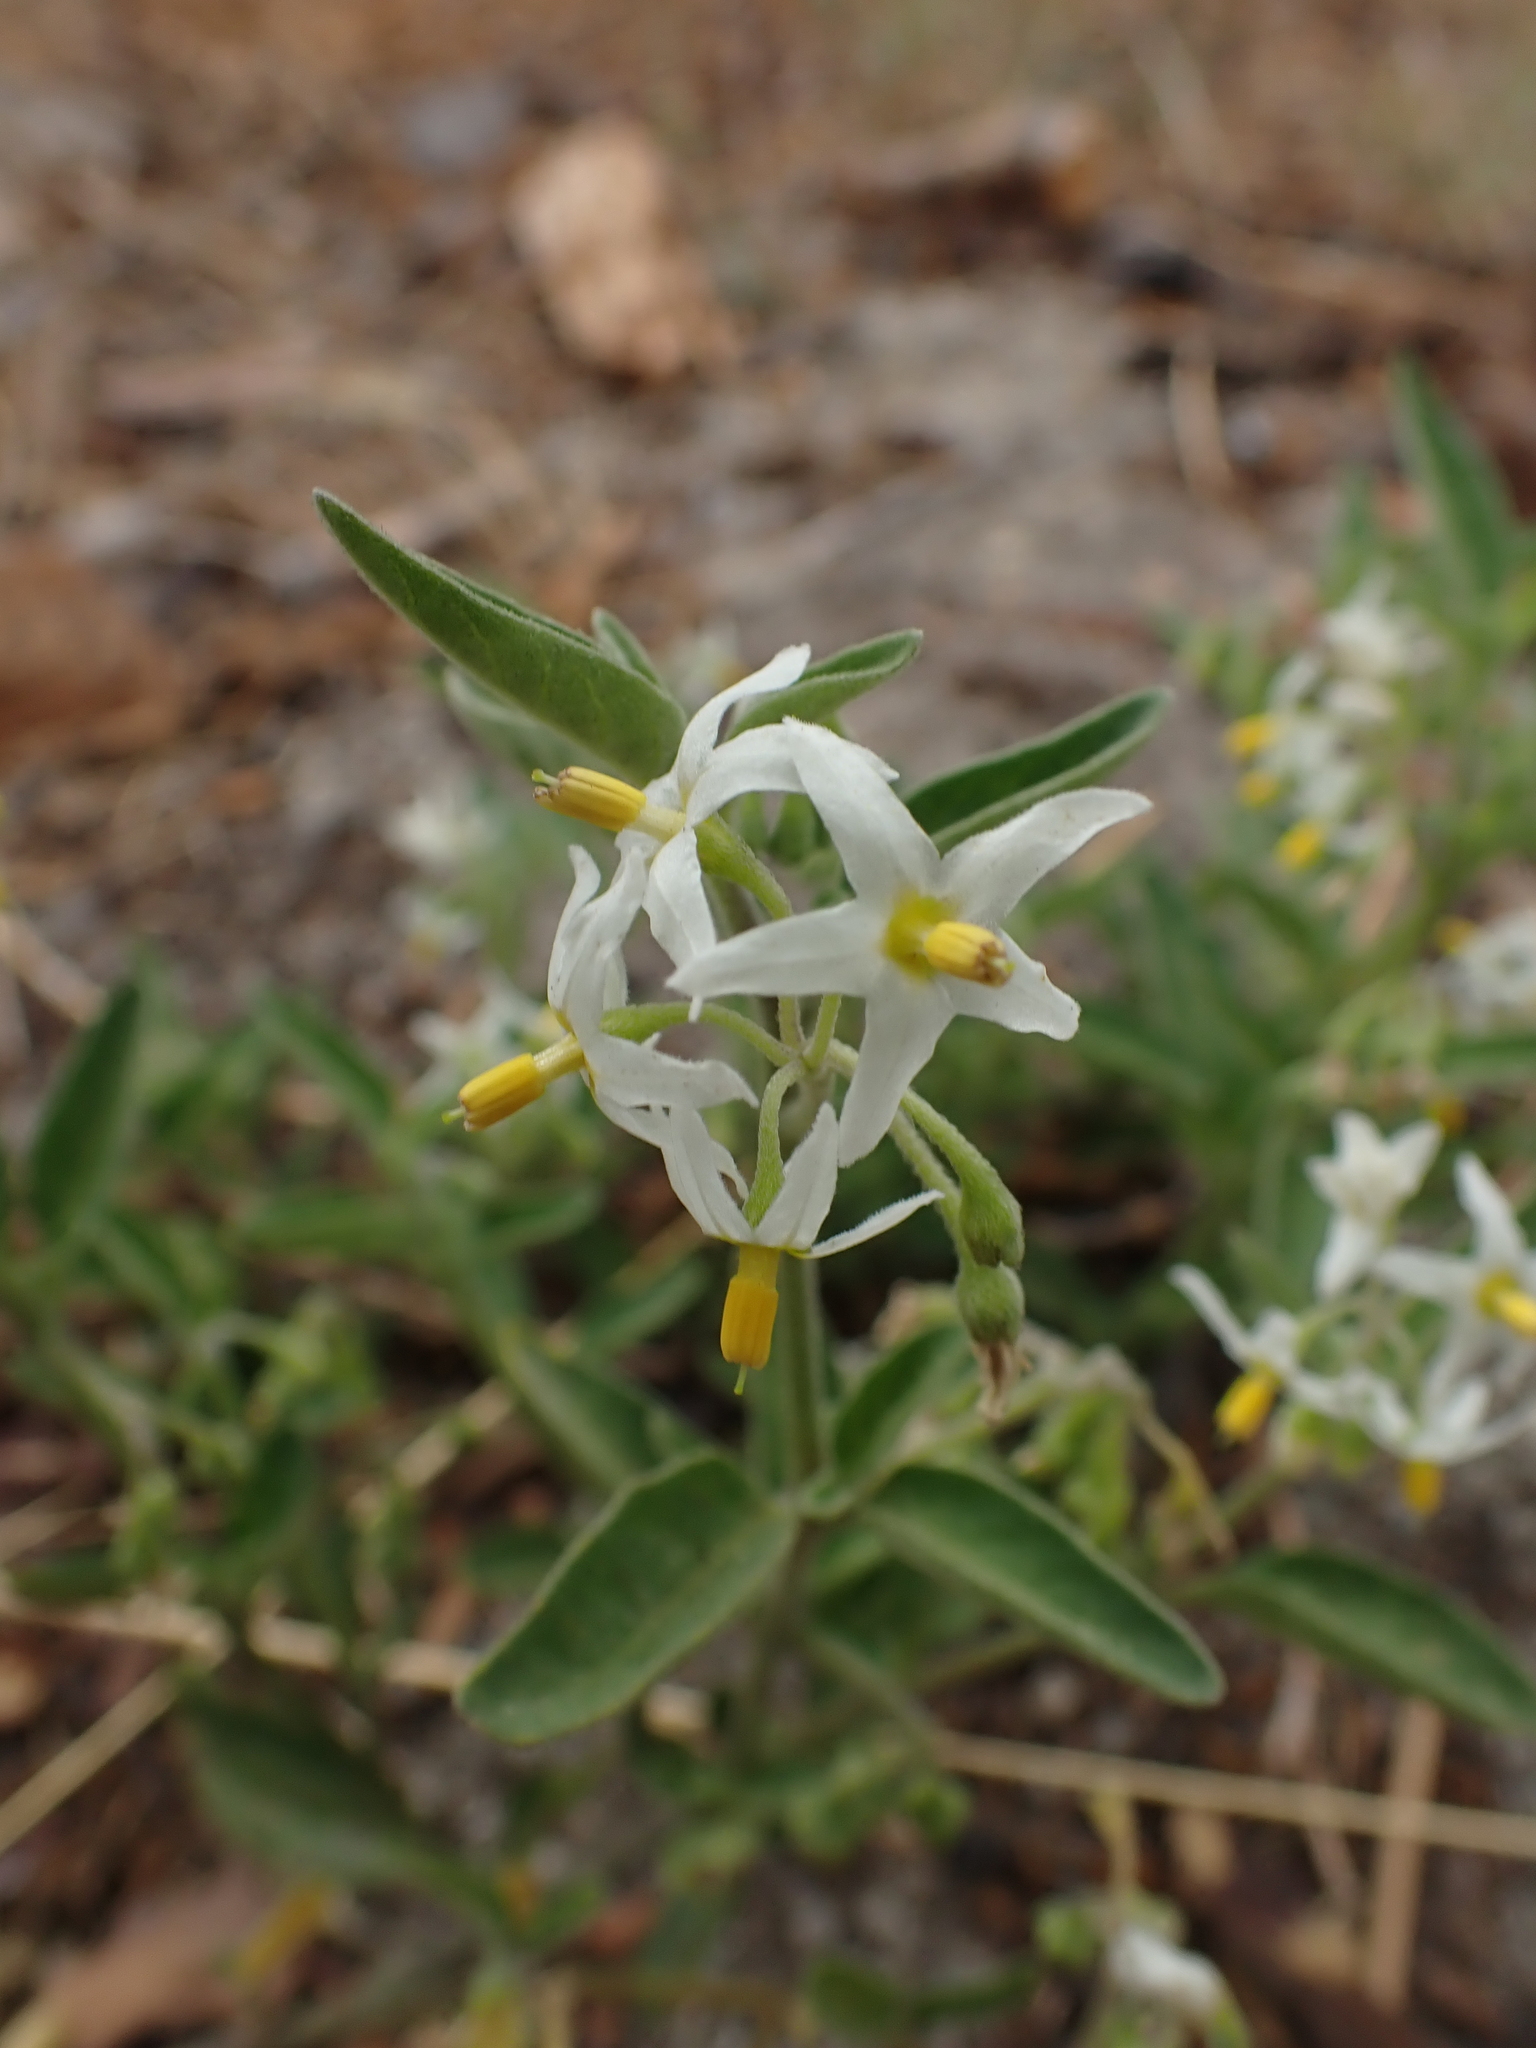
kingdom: Plantae
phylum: Tracheophyta
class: Magnoliopsida
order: Solanales
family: Solanaceae
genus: Solanum
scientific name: Solanum chenopodioides
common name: Tall nightshade
